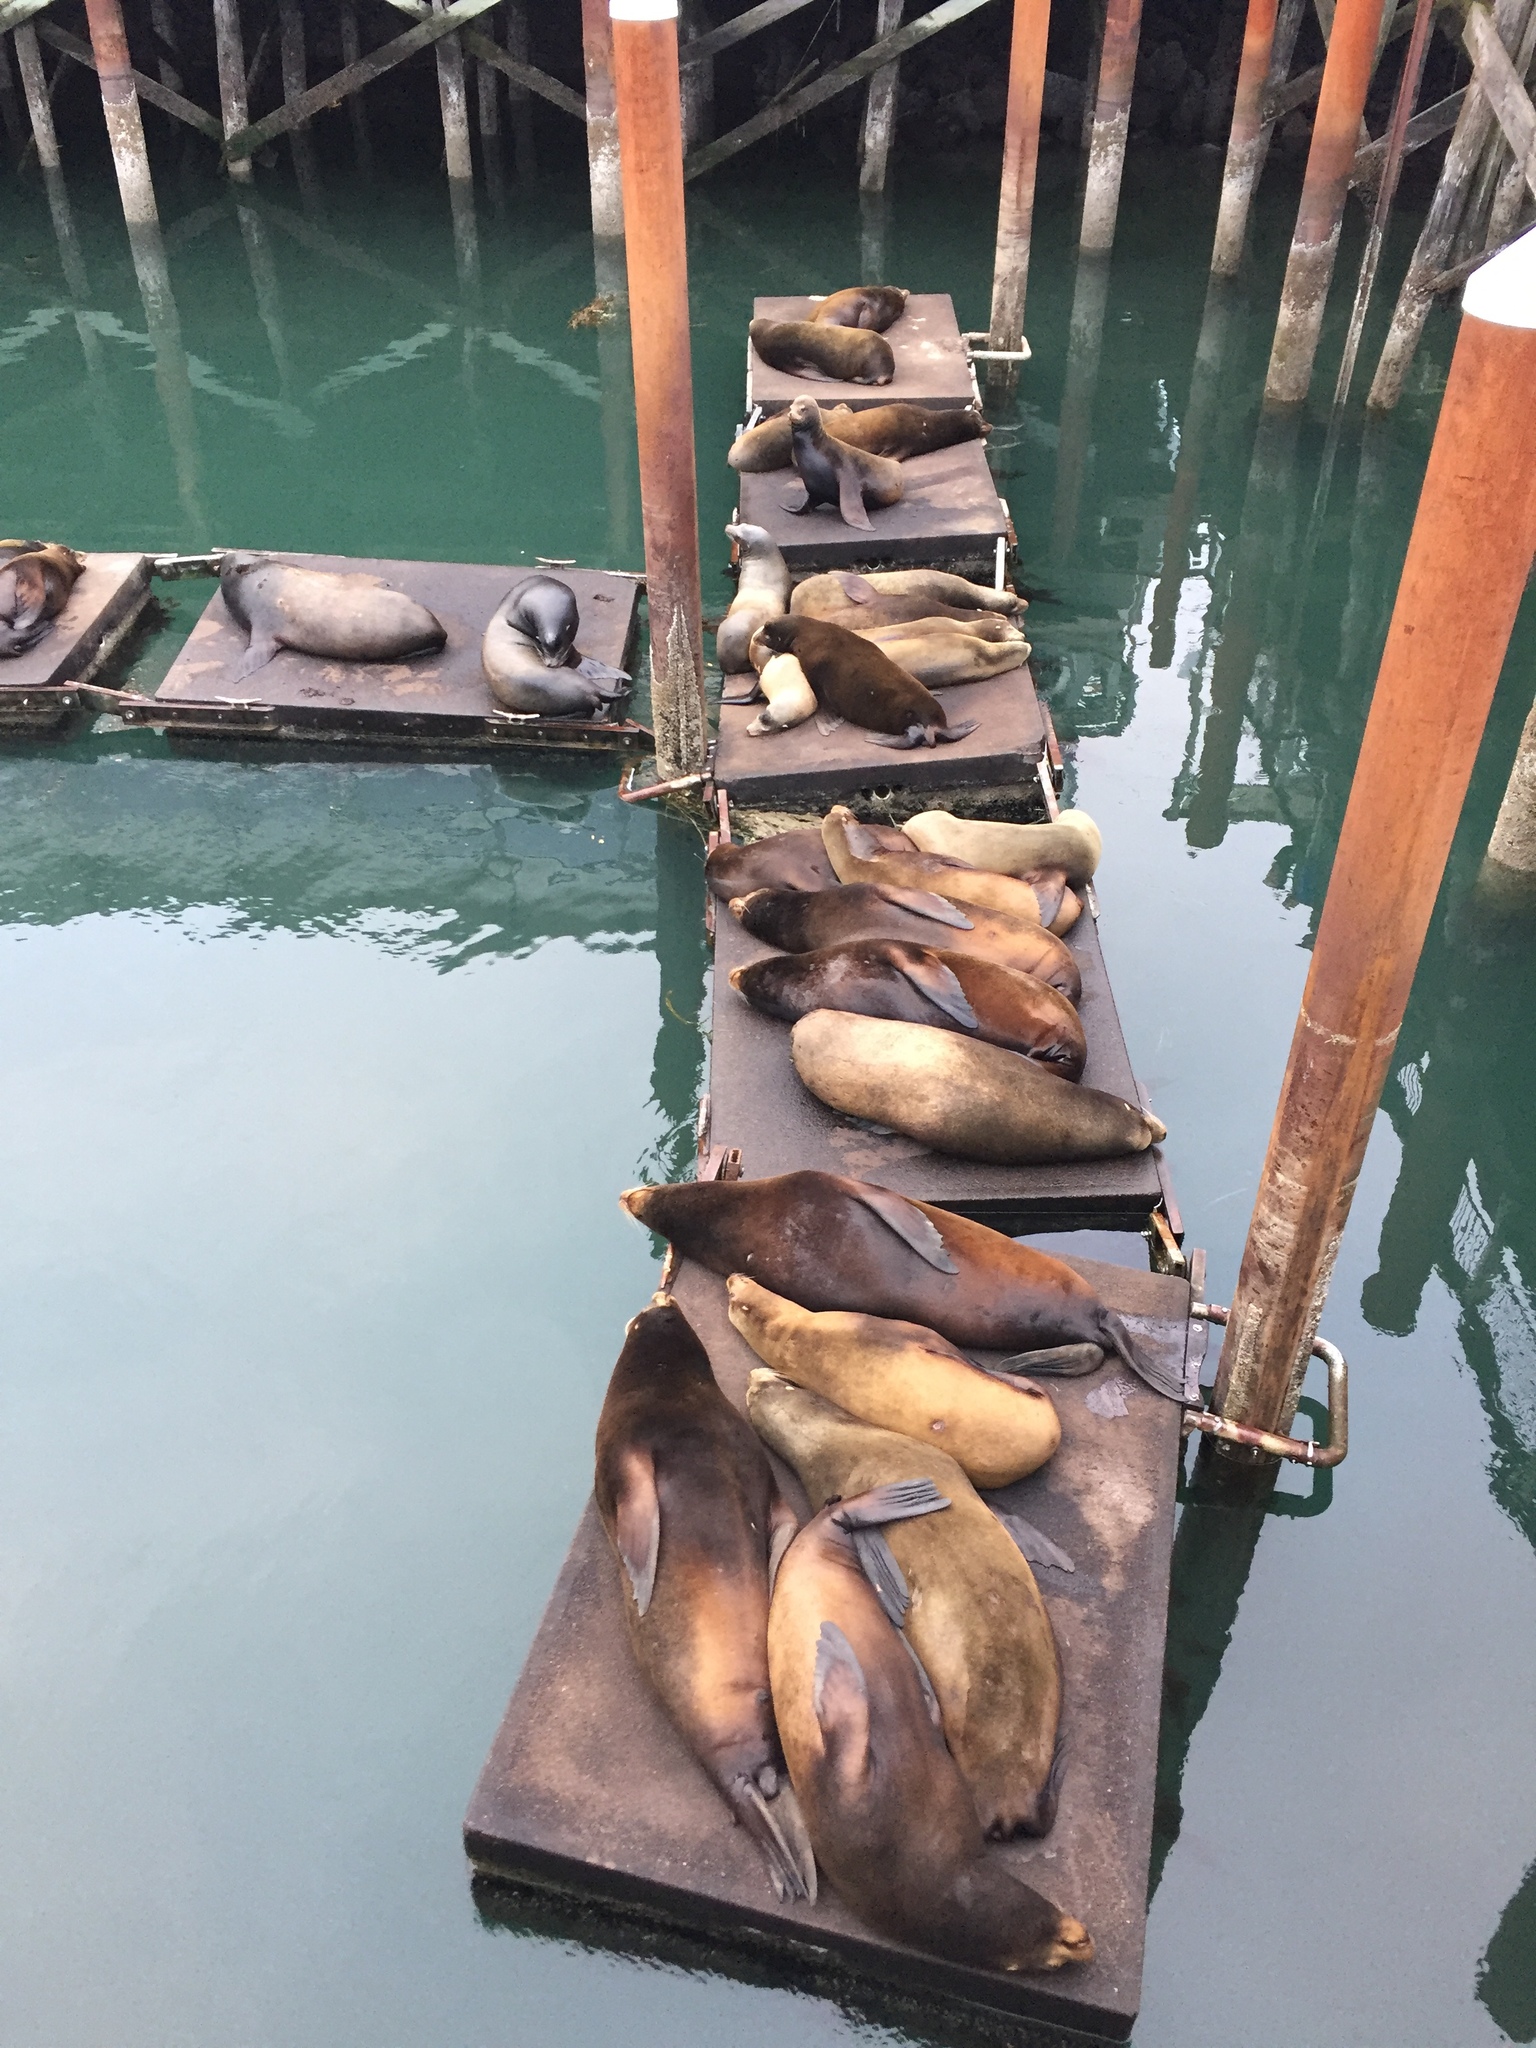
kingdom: Animalia
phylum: Chordata
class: Mammalia
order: Carnivora
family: Otariidae
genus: Zalophus
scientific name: Zalophus californianus
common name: California sea lion
